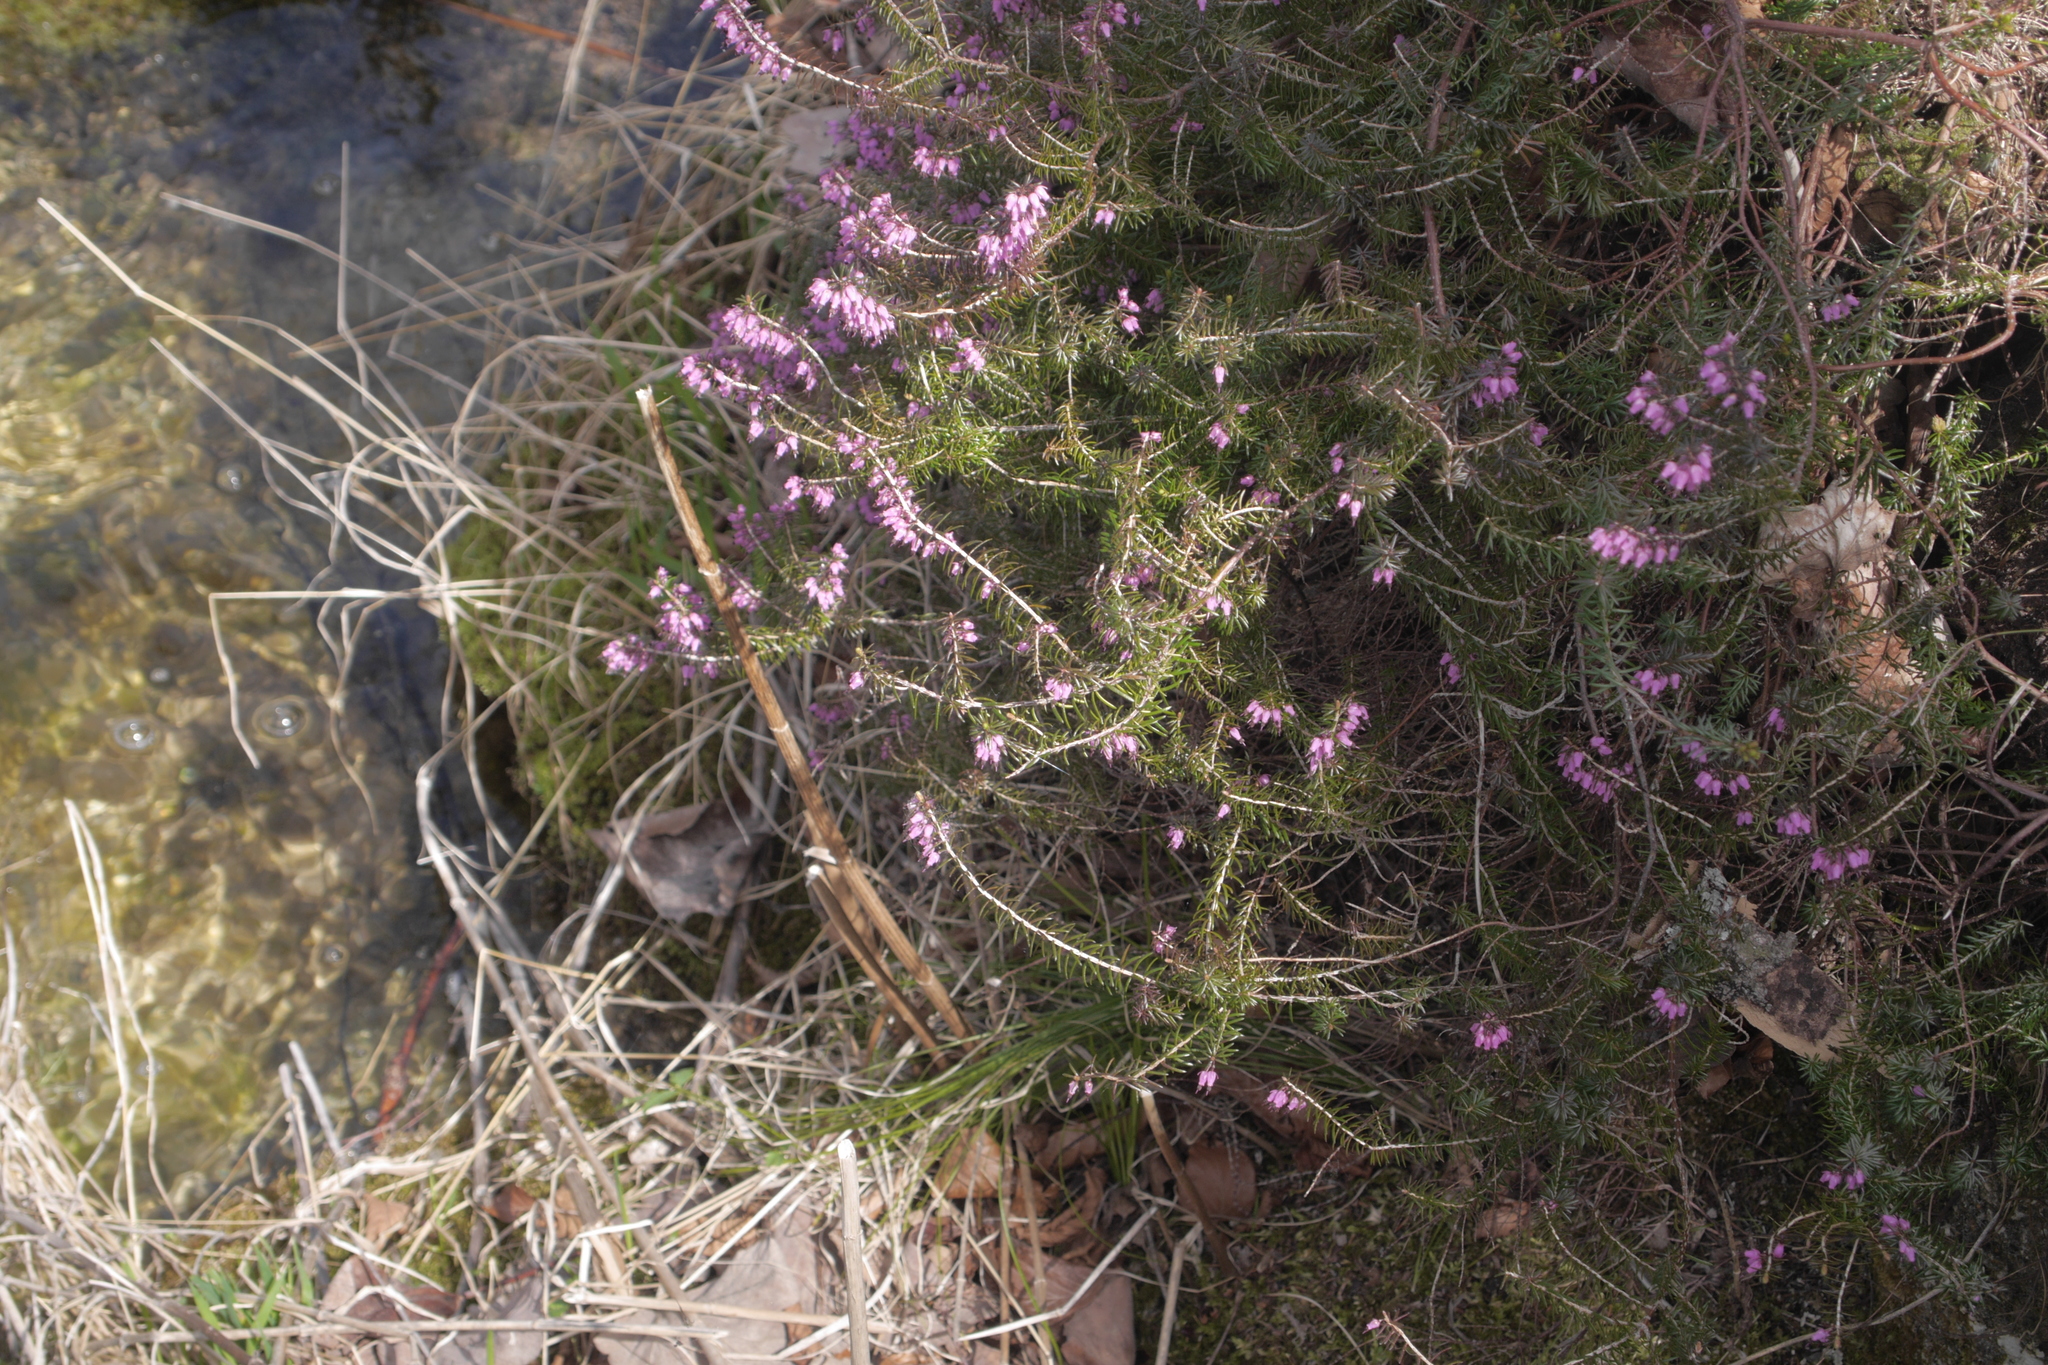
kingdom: Plantae
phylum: Tracheophyta
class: Magnoliopsida
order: Ericales
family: Ericaceae
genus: Erica
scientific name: Erica carnea
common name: Winter heath
